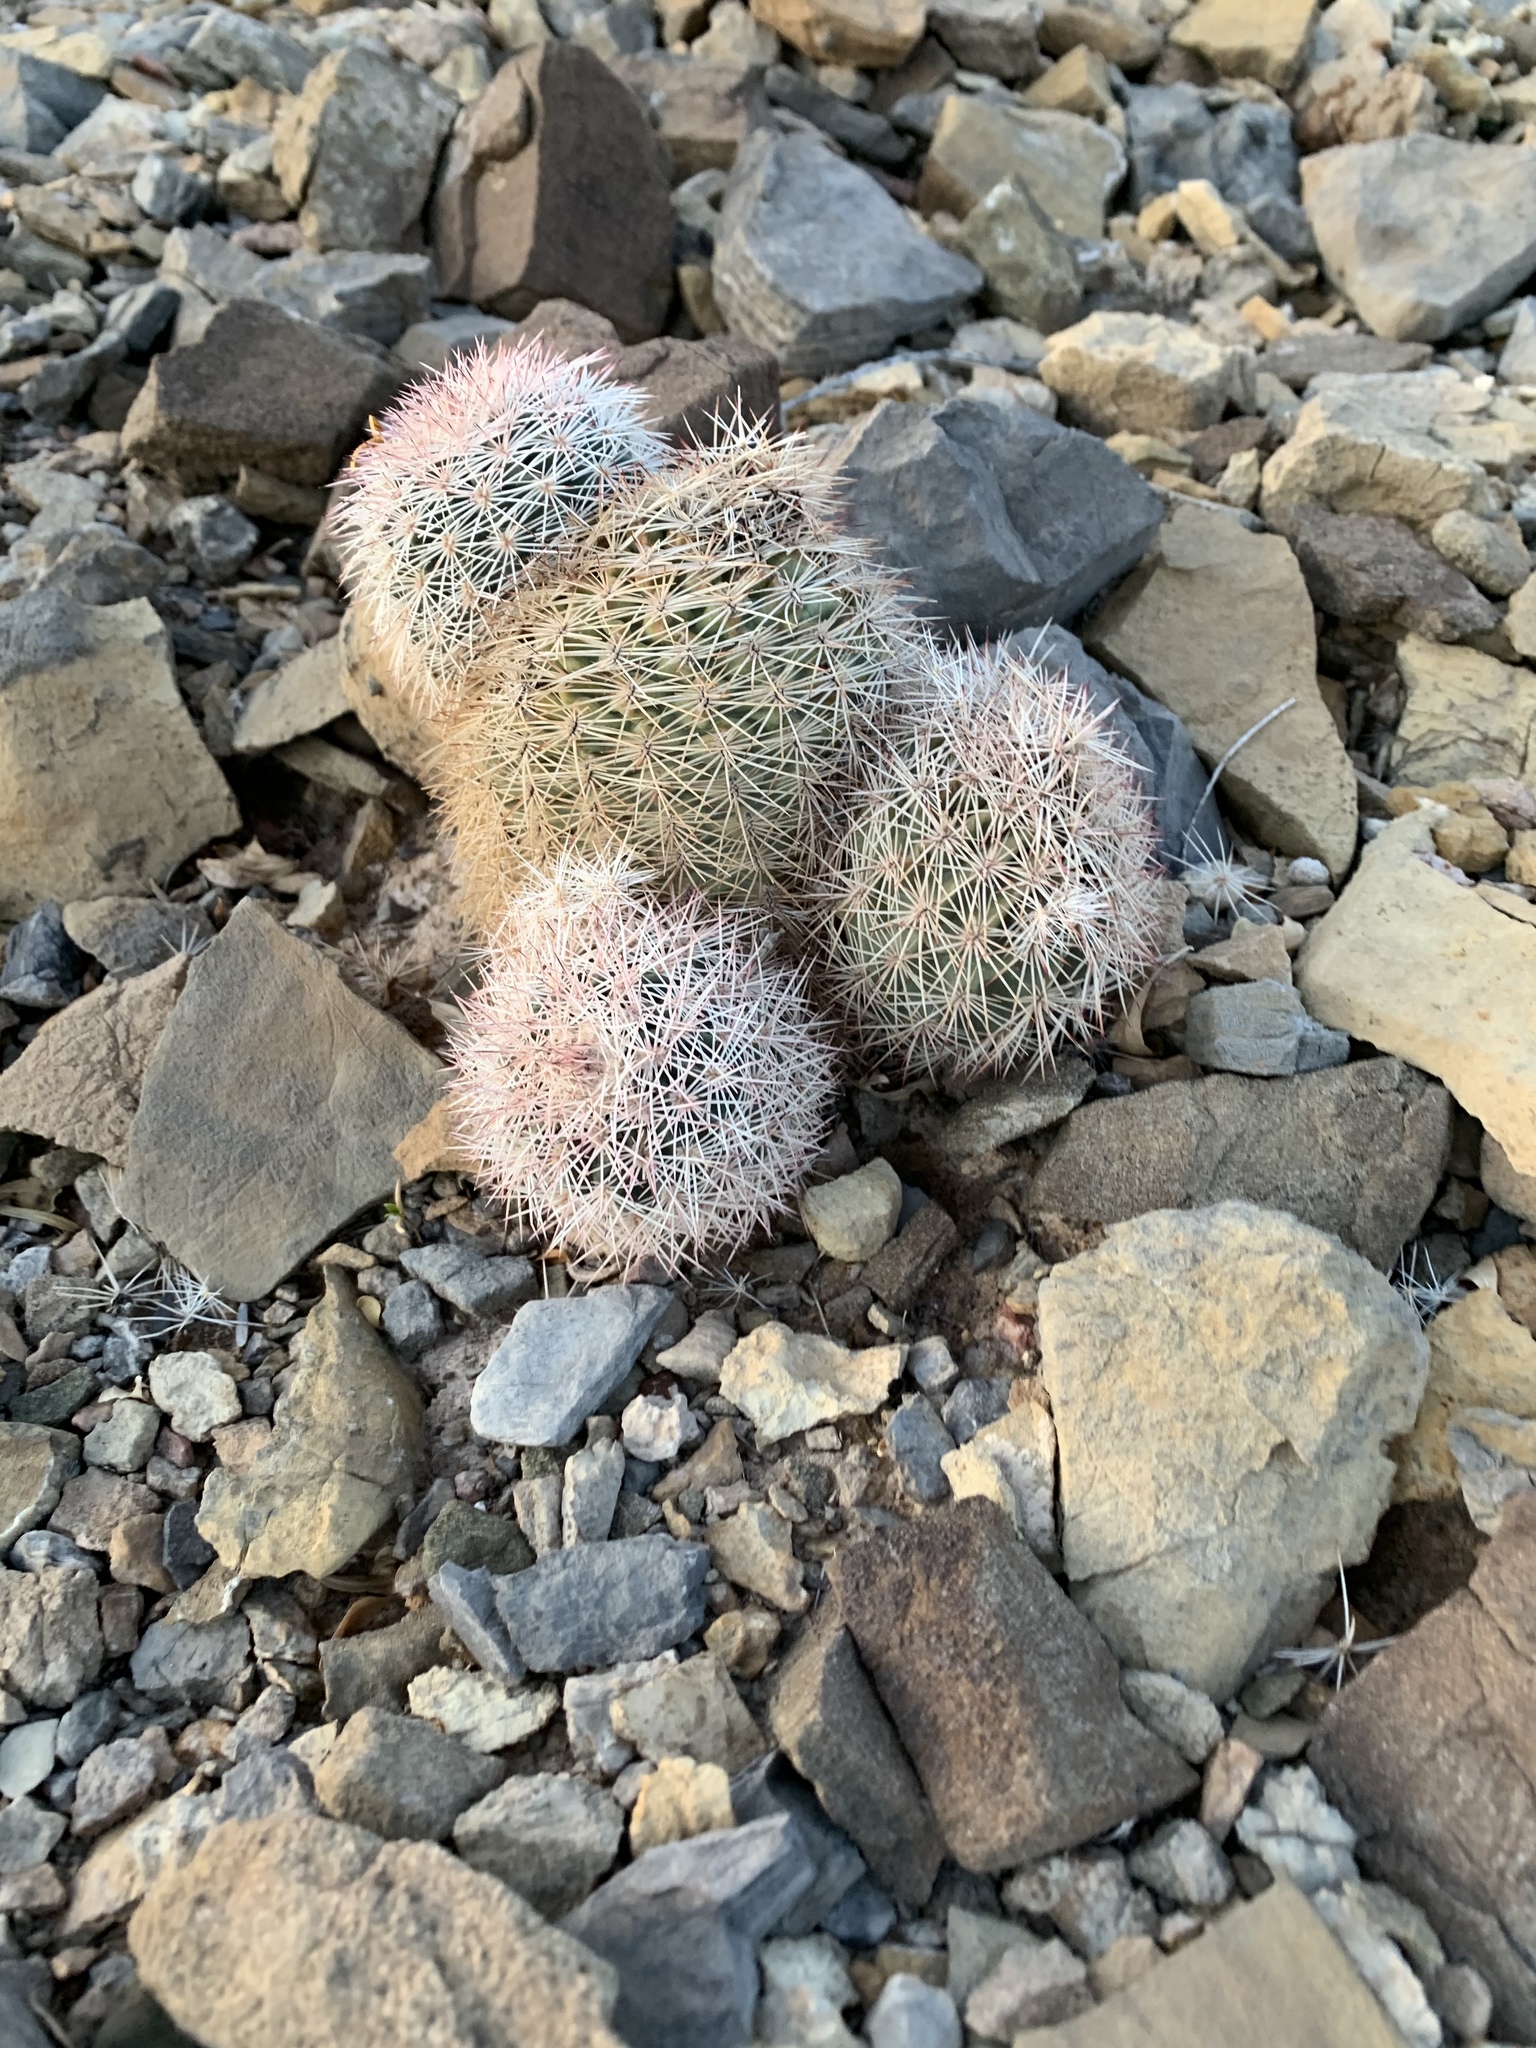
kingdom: Plantae
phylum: Tracheophyta
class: Magnoliopsida
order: Caryophyllales
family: Cactaceae
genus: Echinocereus
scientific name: Echinocereus dasyacanthus
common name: Spiny hedgehog cactus
